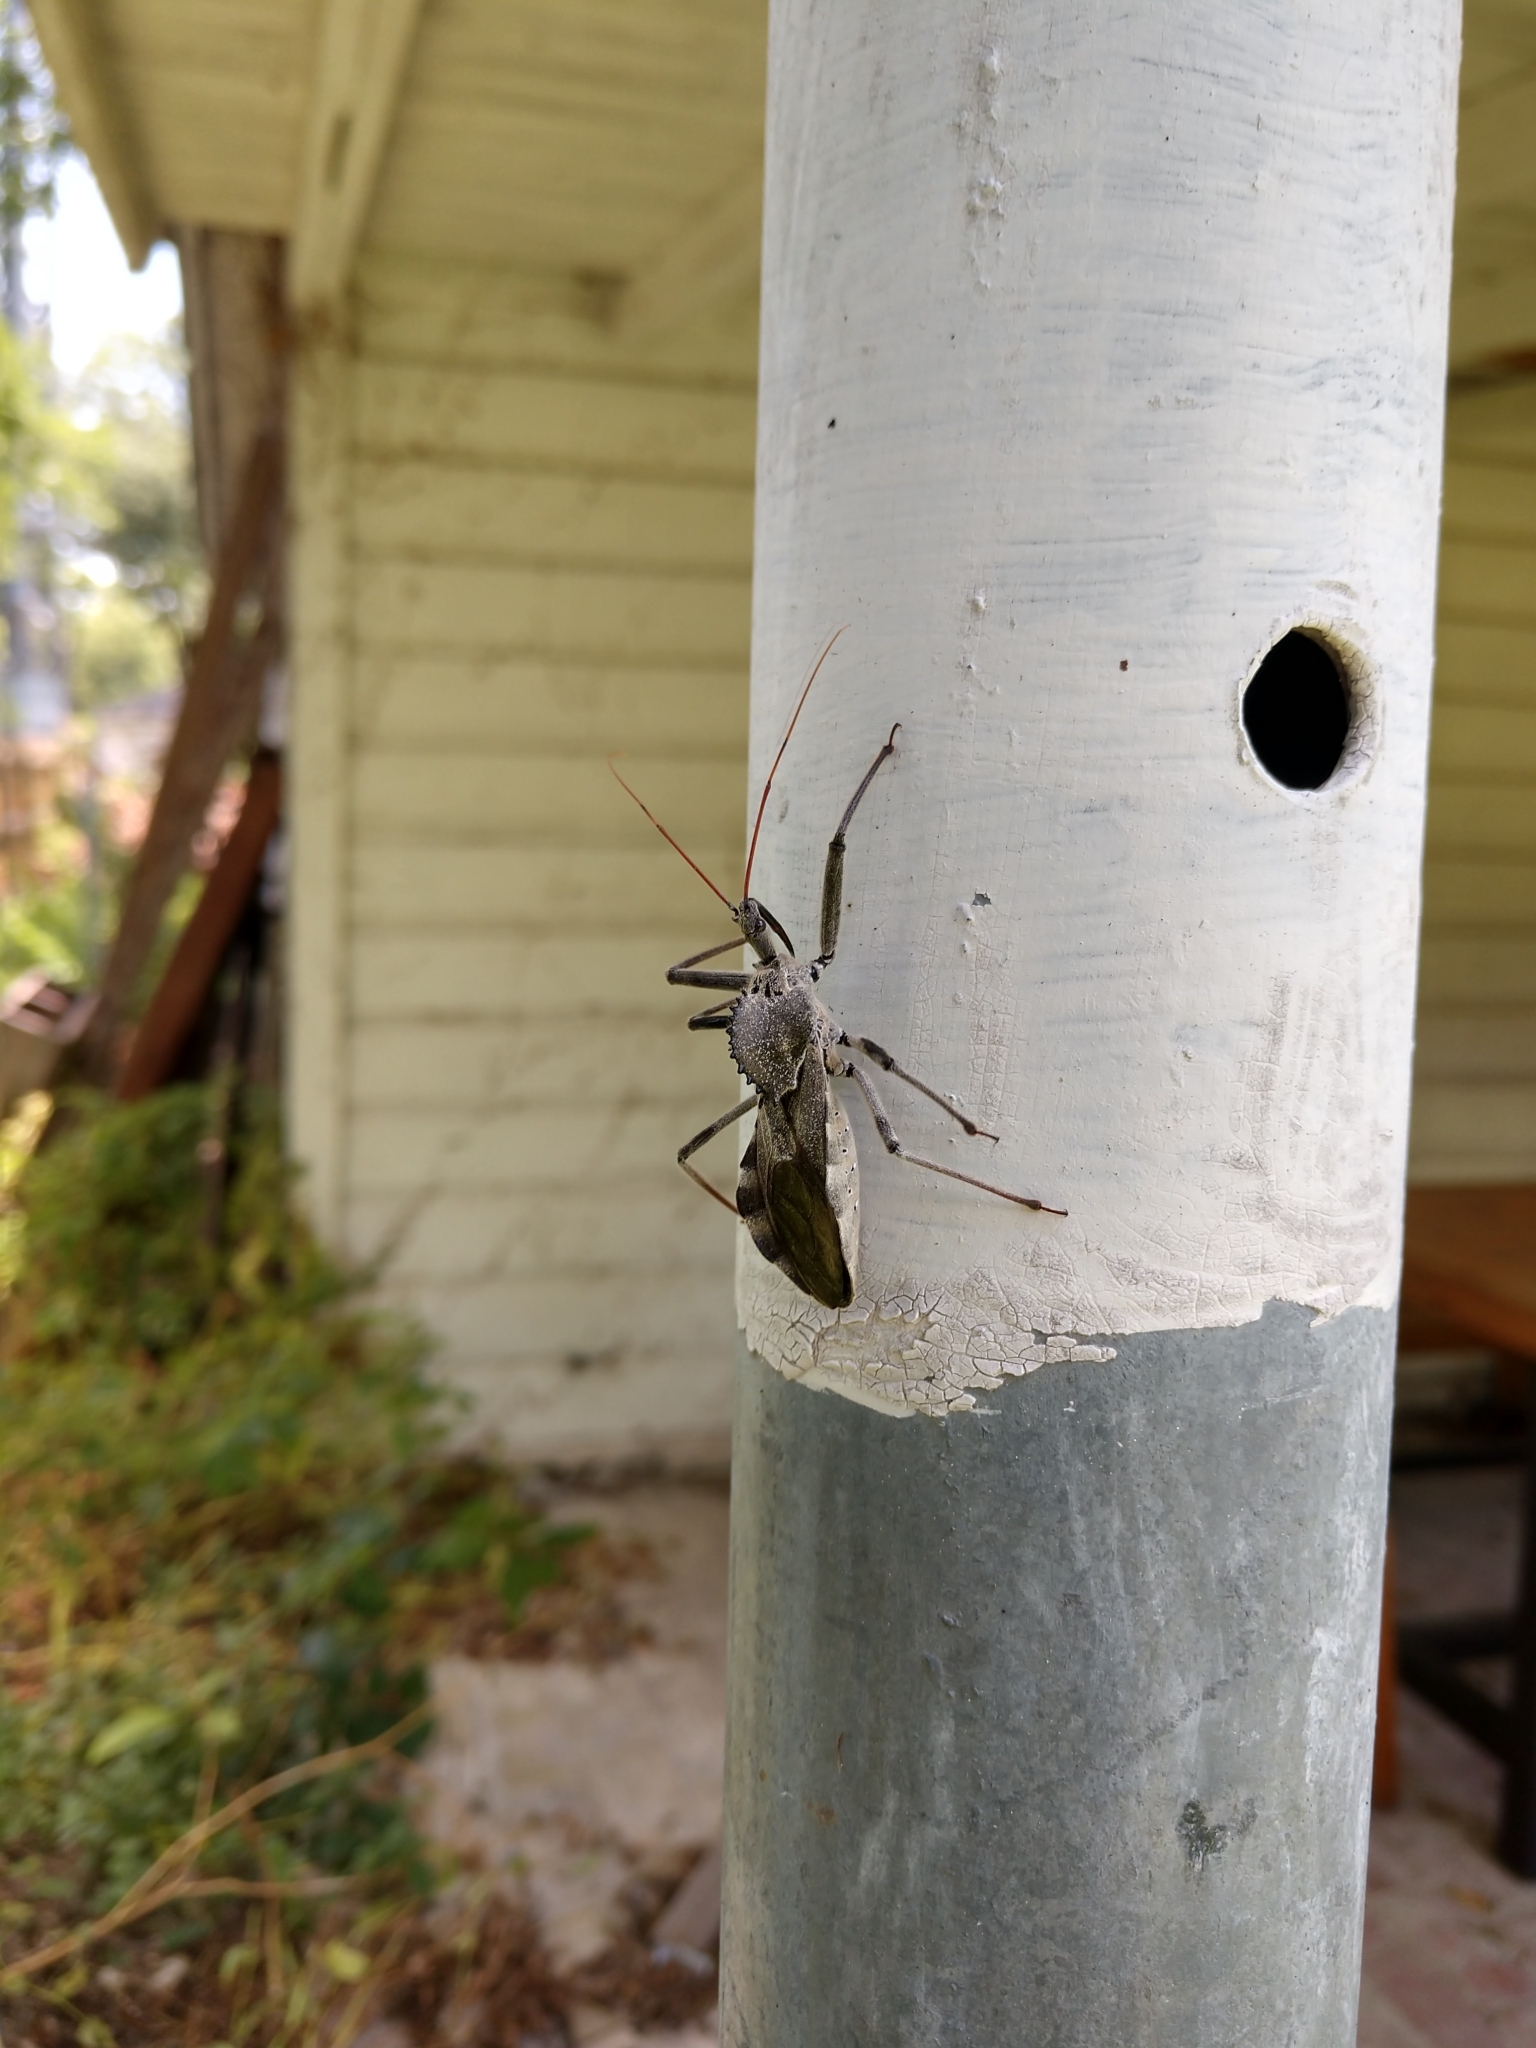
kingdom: Animalia
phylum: Arthropoda
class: Insecta
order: Hemiptera
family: Reduviidae
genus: Arilus
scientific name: Arilus cristatus
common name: North american wheel bug
